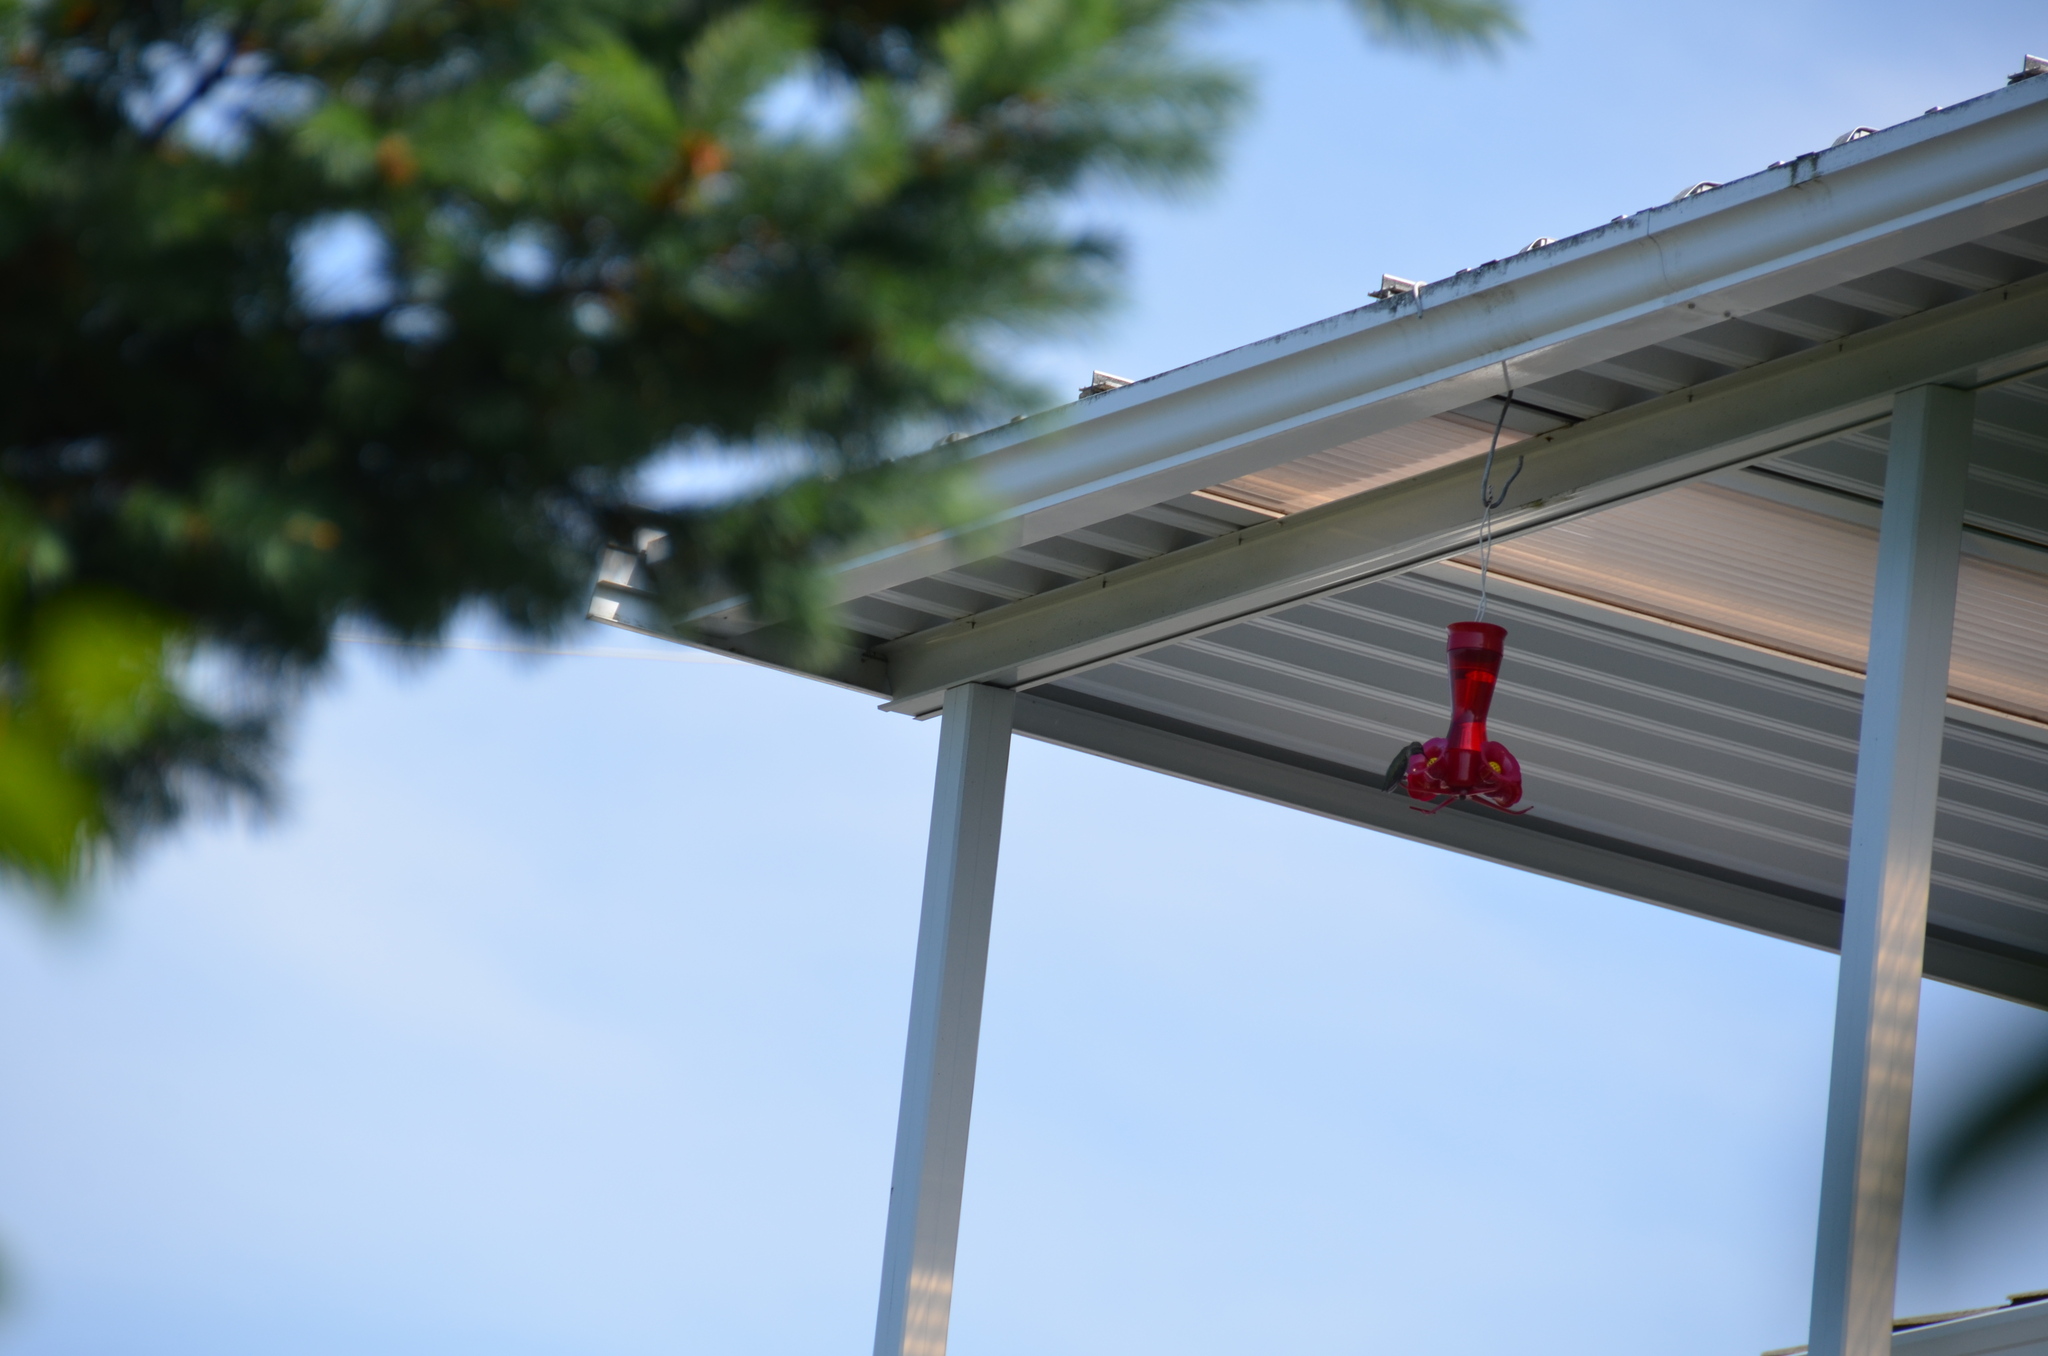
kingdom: Animalia
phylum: Chordata
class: Aves
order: Apodiformes
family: Trochilidae
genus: Calypte
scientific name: Calypte anna
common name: Anna's hummingbird
